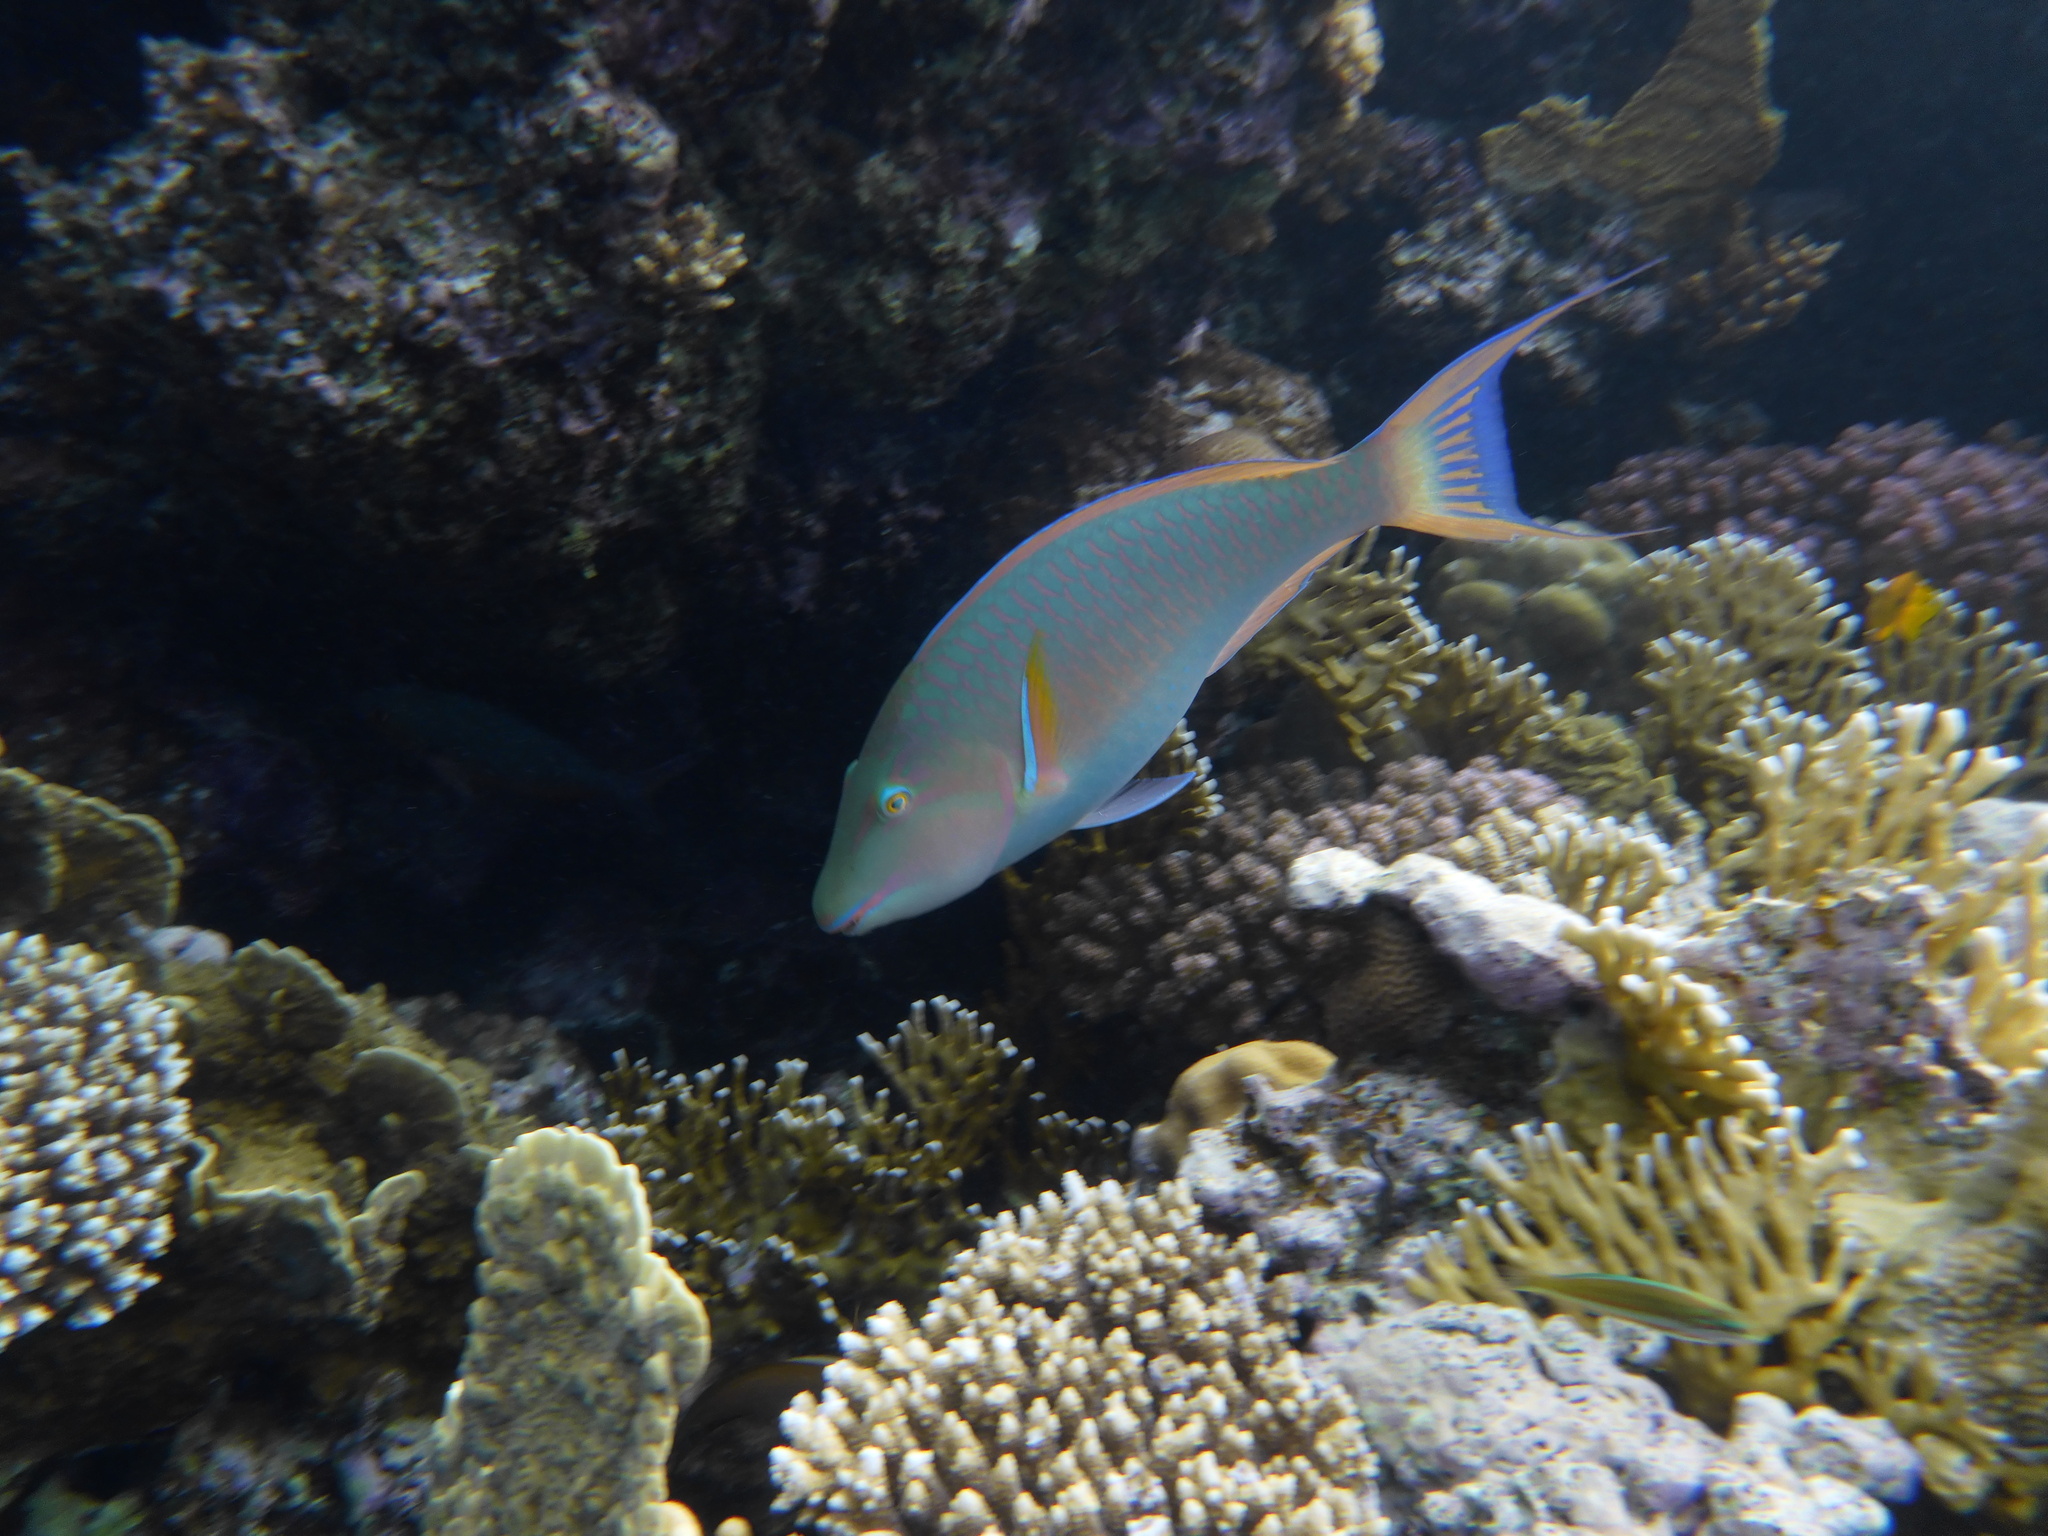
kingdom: Animalia
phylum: Chordata
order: Perciformes
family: Scaridae
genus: Hipposcarus
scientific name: Hipposcarus harid
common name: Candelamoa parrotfish
